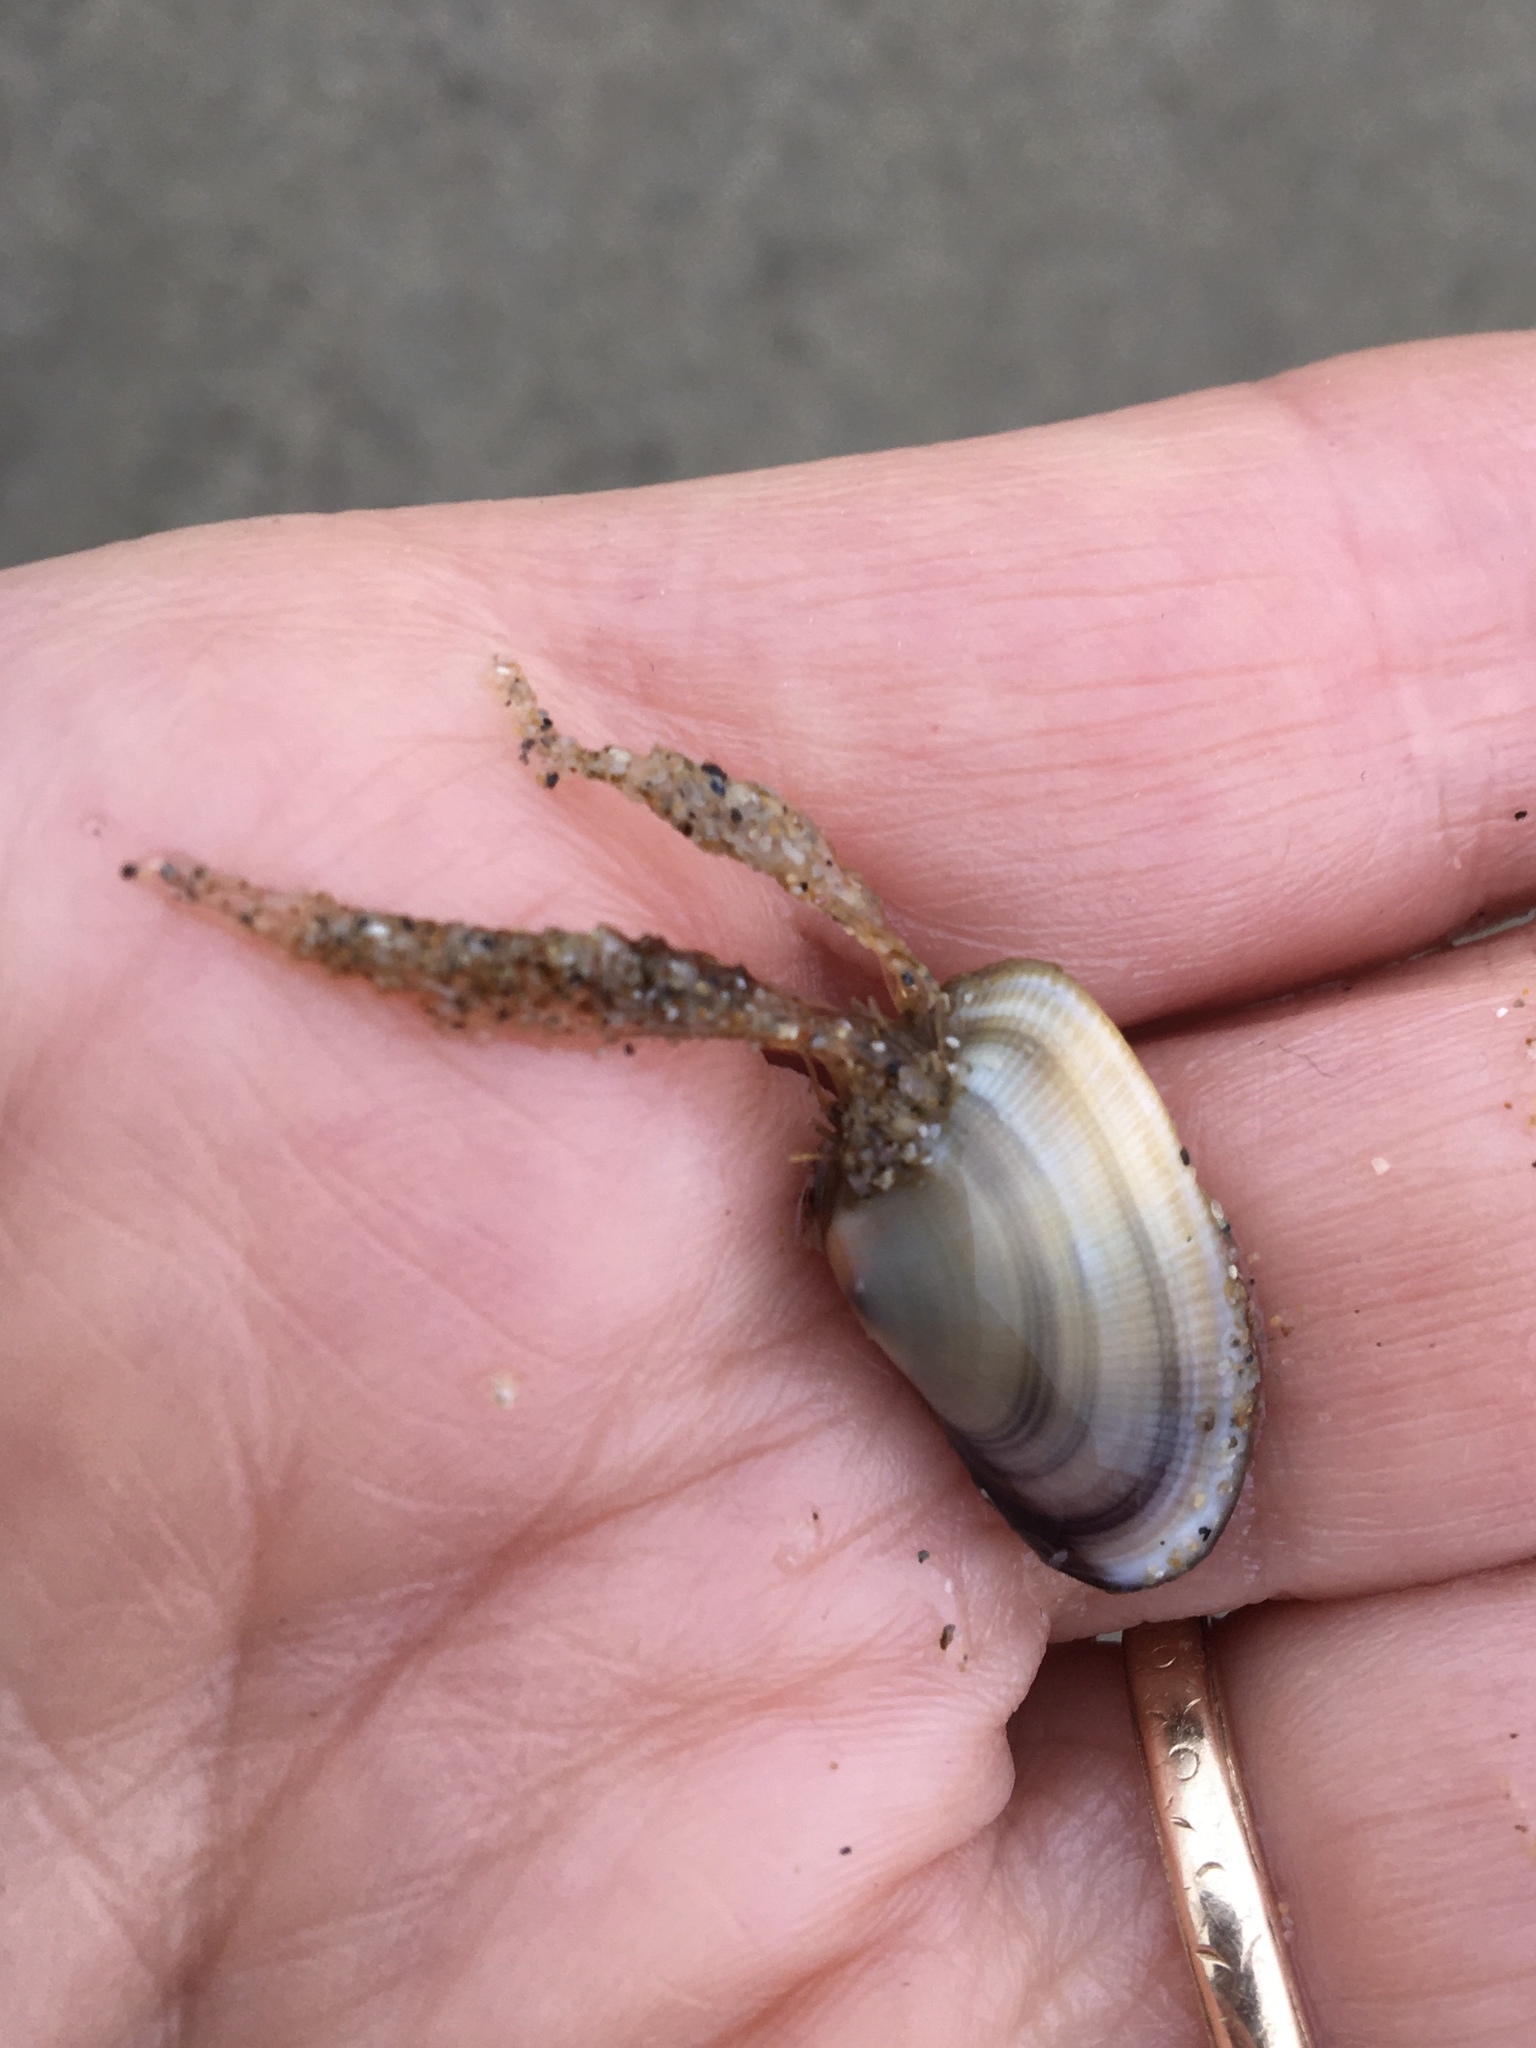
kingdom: Animalia
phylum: Cnidaria
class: Hydrozoa
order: Leptothecata
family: Lovenellidae
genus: Eucheilota
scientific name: Eucheilota bakeri
